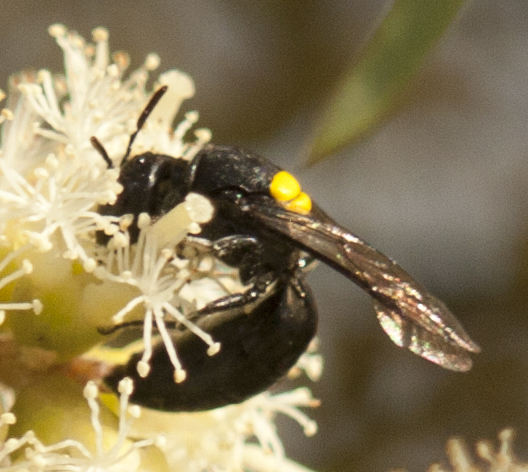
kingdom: Animalia
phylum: Arthropoda
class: Insecta
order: Hymenoptera
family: Colletidae
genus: Hylaeus
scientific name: Hylaeus rotundiceps
